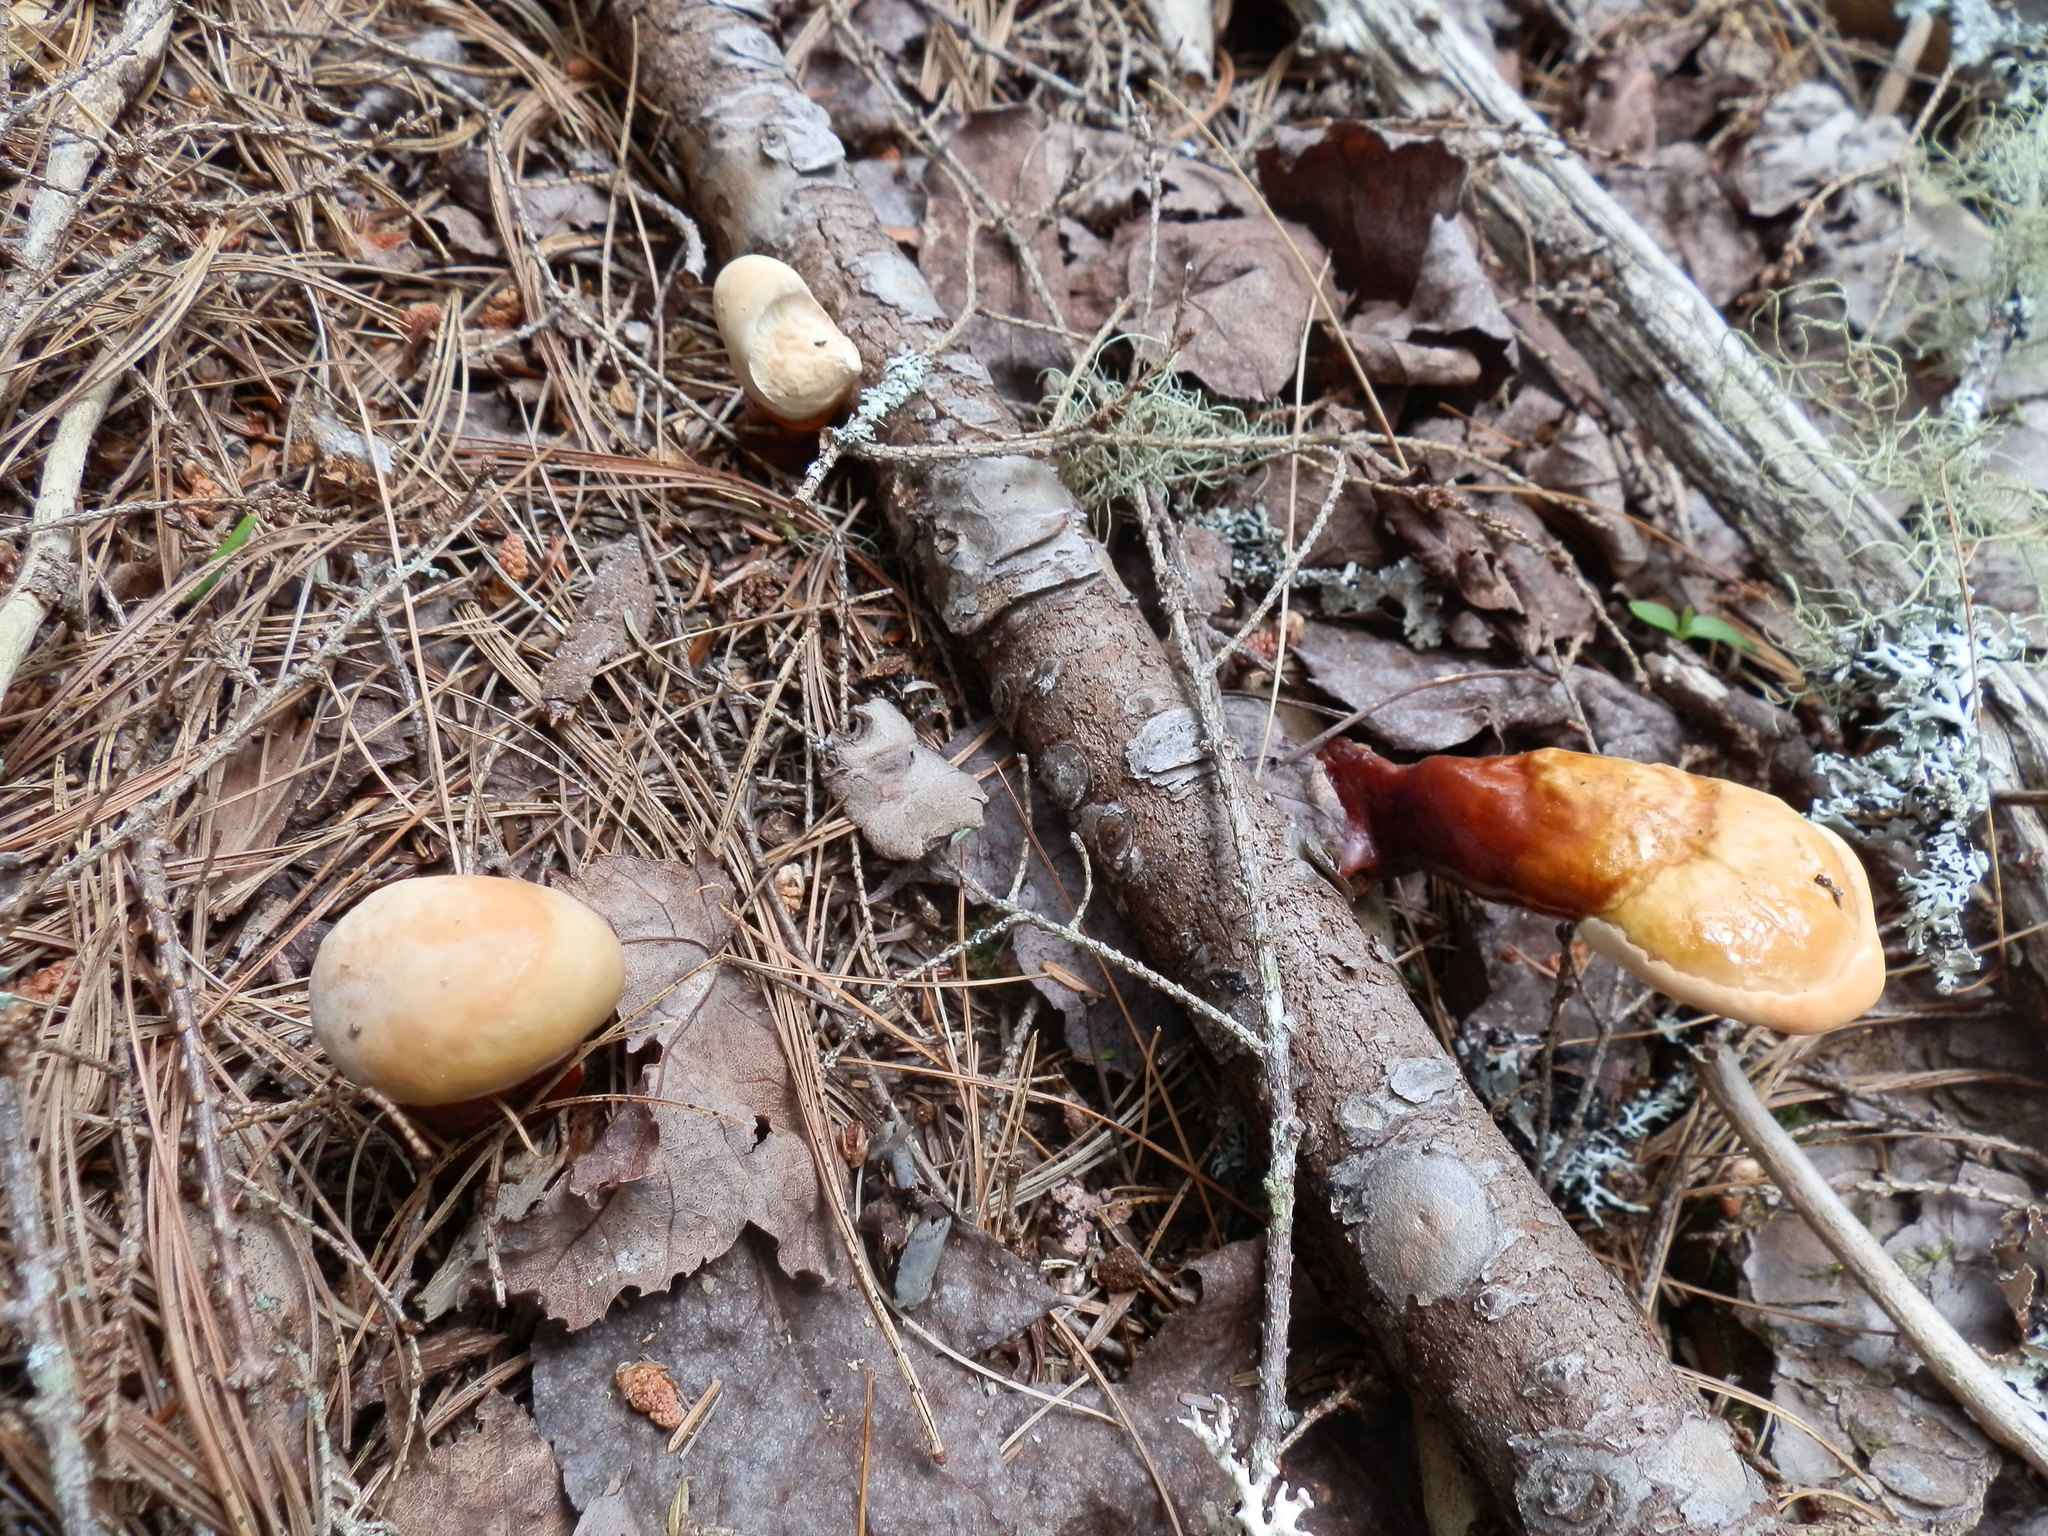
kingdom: Fungi
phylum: Basidiomycota
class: Agaricomycetes
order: Polyporales
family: Polyporaceae
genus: Ganoderma
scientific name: Ganoderma tsugae
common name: Hemlock varnish shelf
